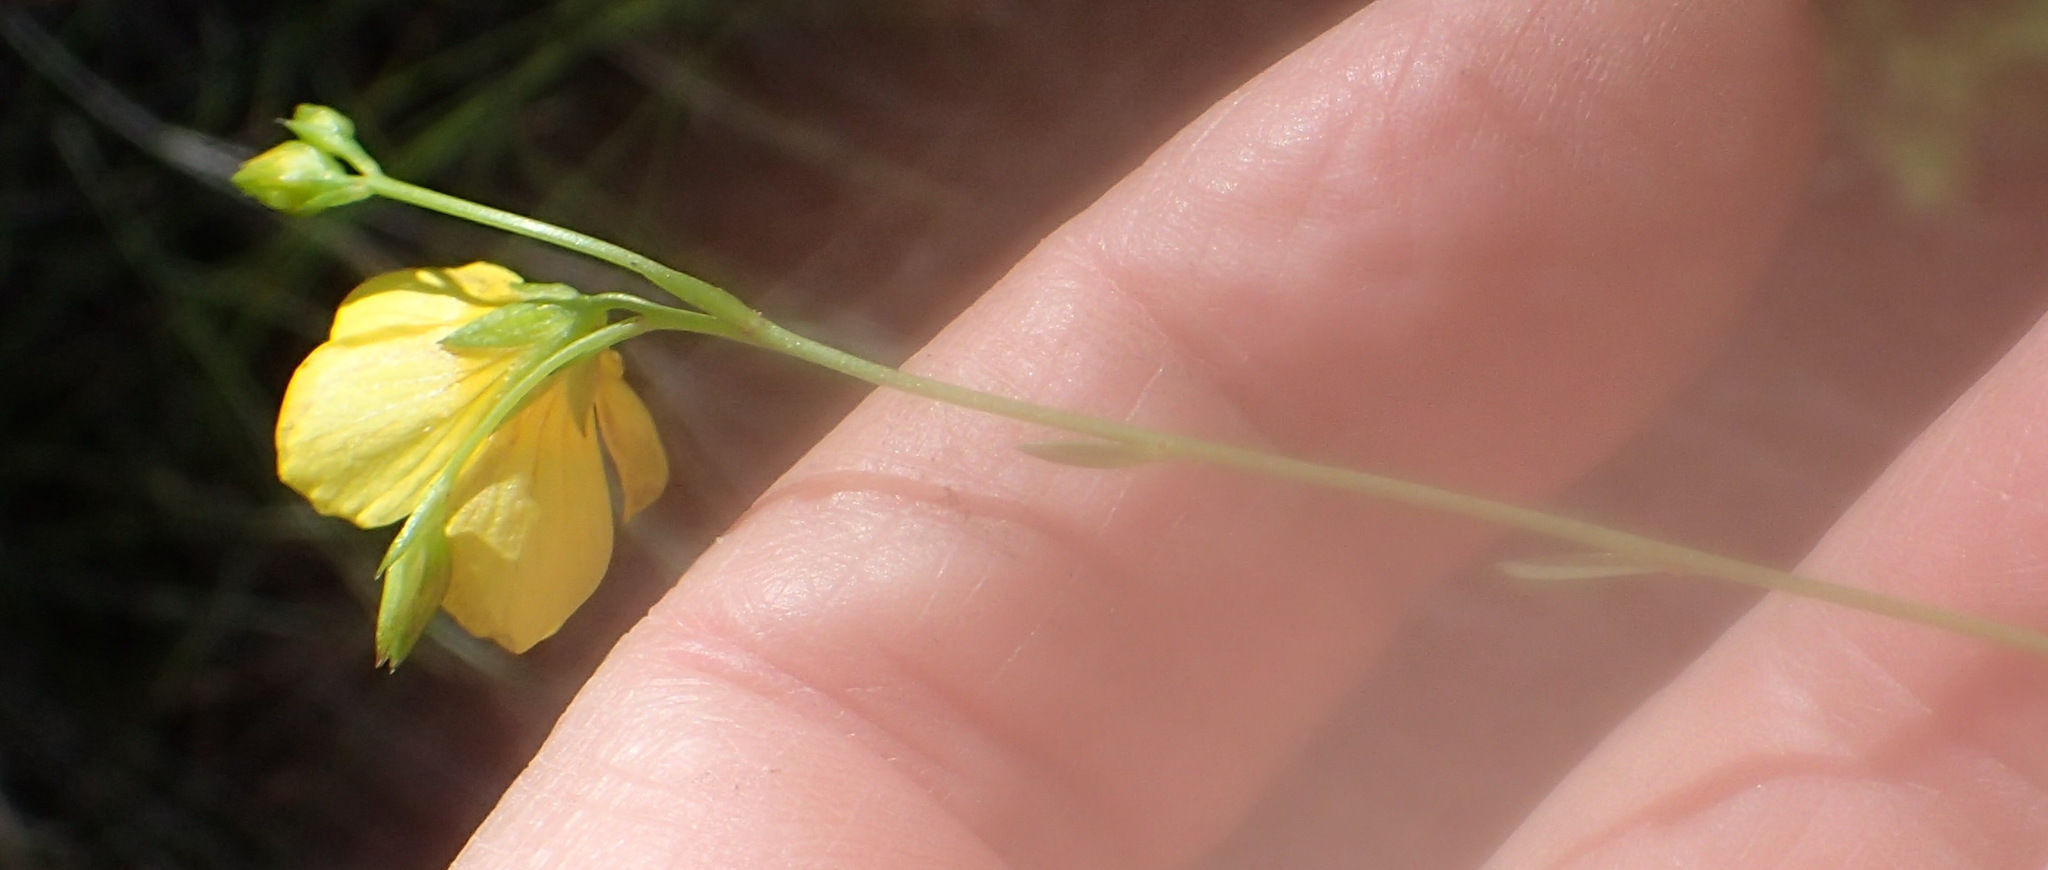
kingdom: Plantae
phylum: Tracheophyta
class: Magnoliopsida
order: Malpighiales
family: Linaceae
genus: Linum
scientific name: Linum africanum
